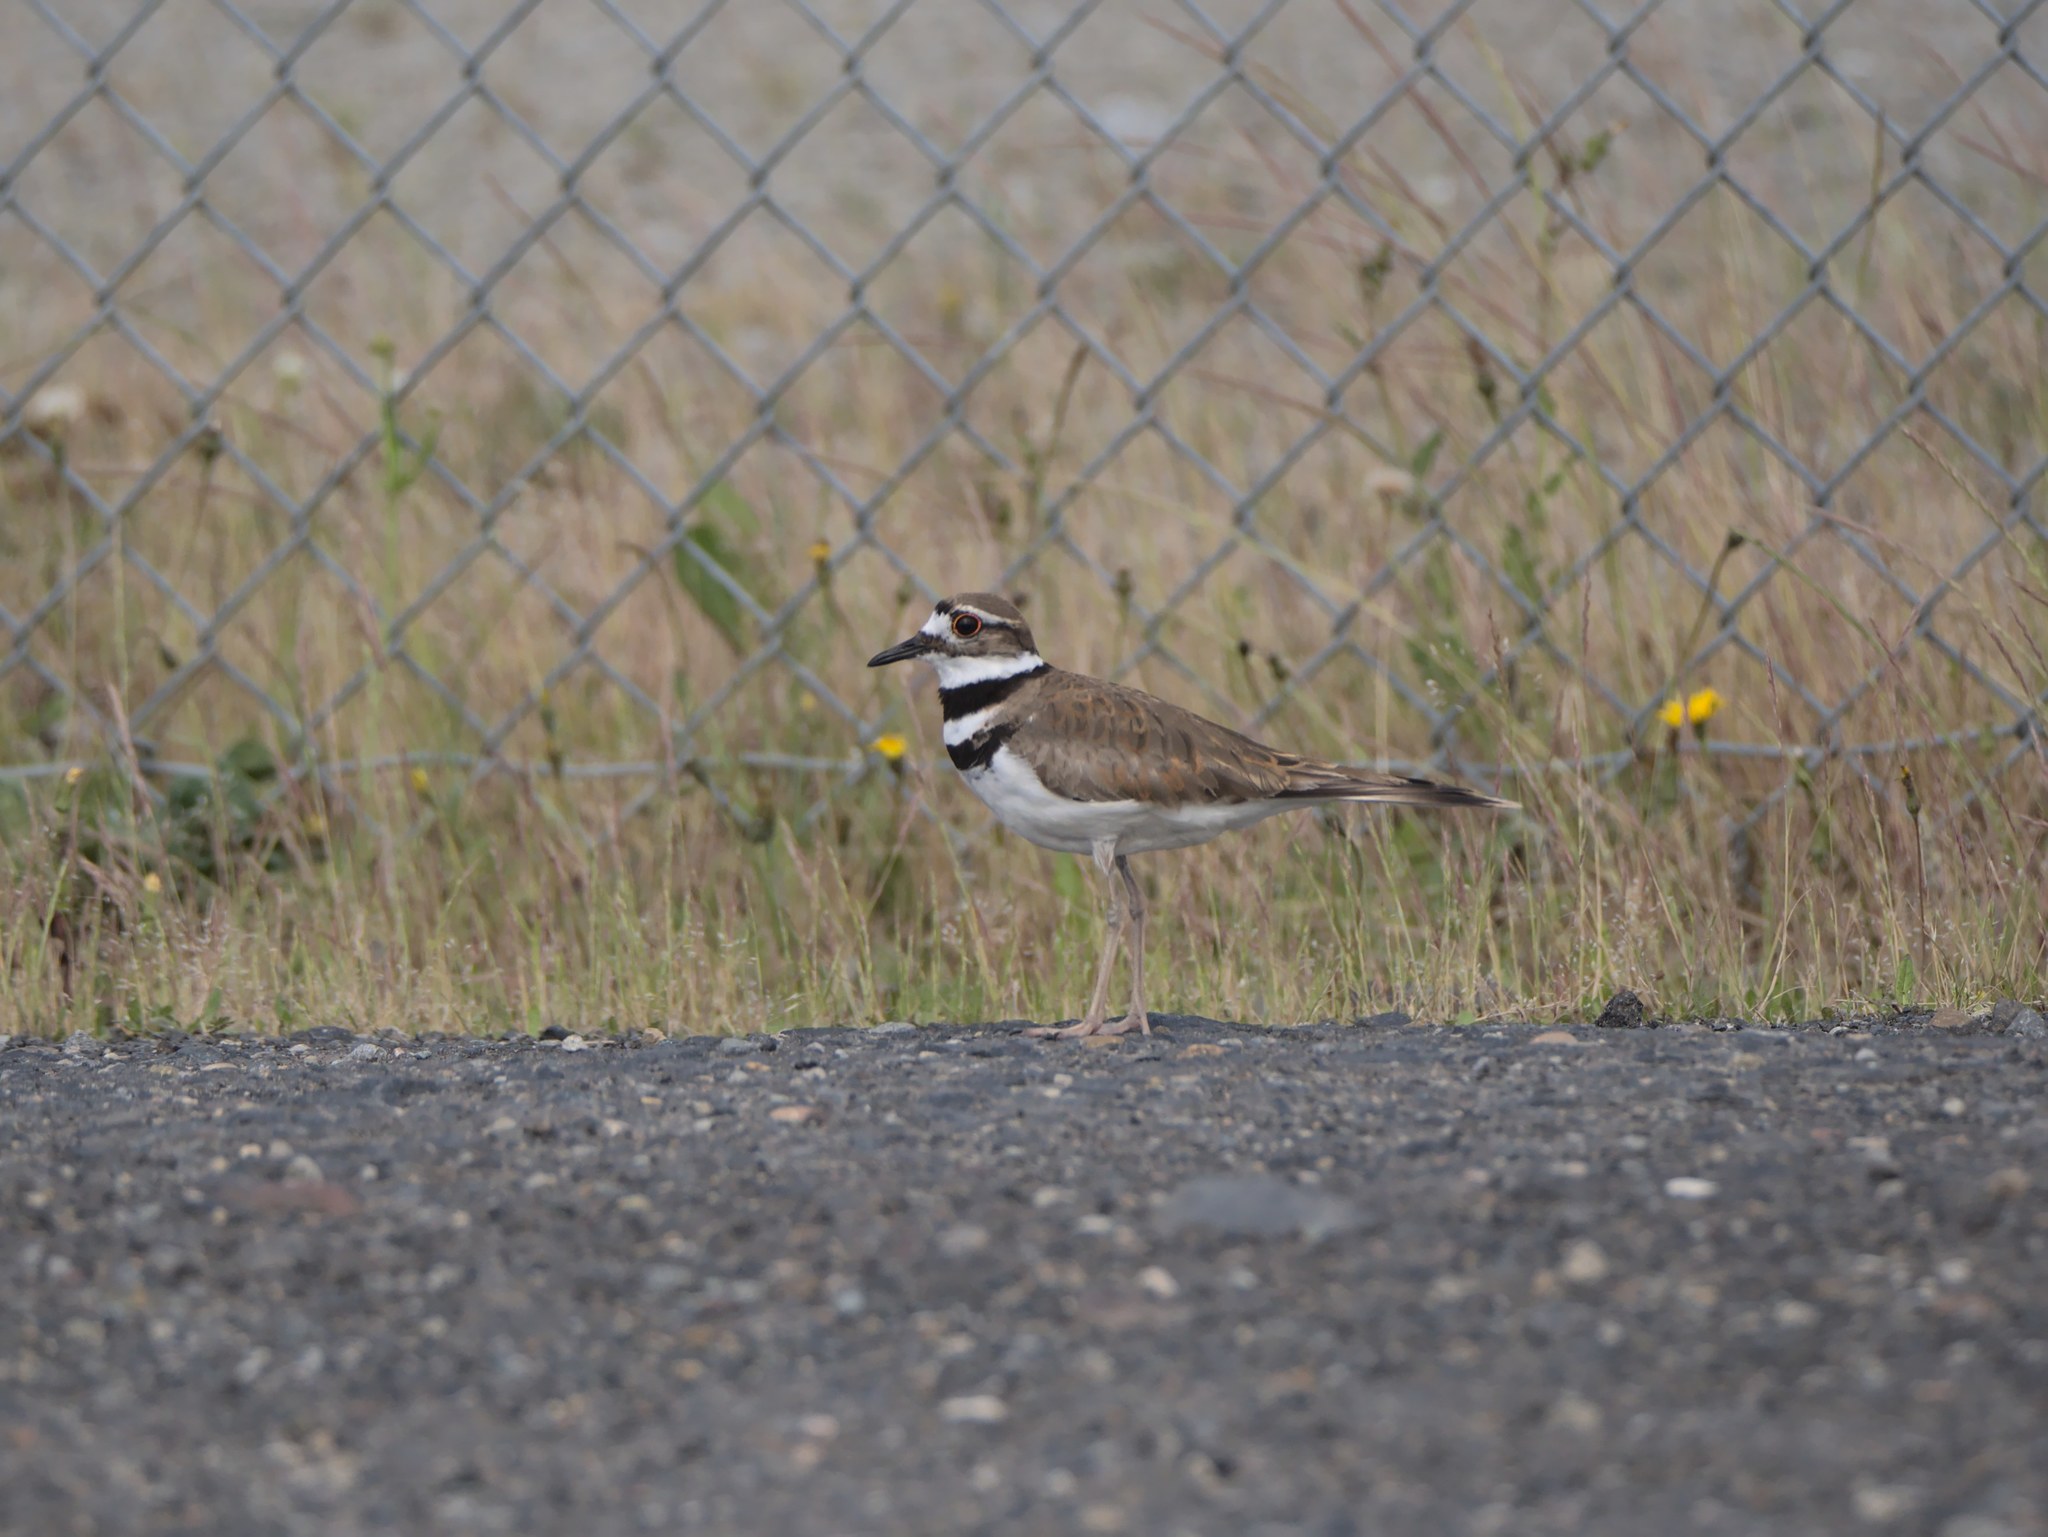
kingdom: Animalia
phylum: Chordata
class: Aves
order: Charadriiformes
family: Charadriidae
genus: Charadrius
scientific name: Charadrius vociferus
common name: Killdeer
